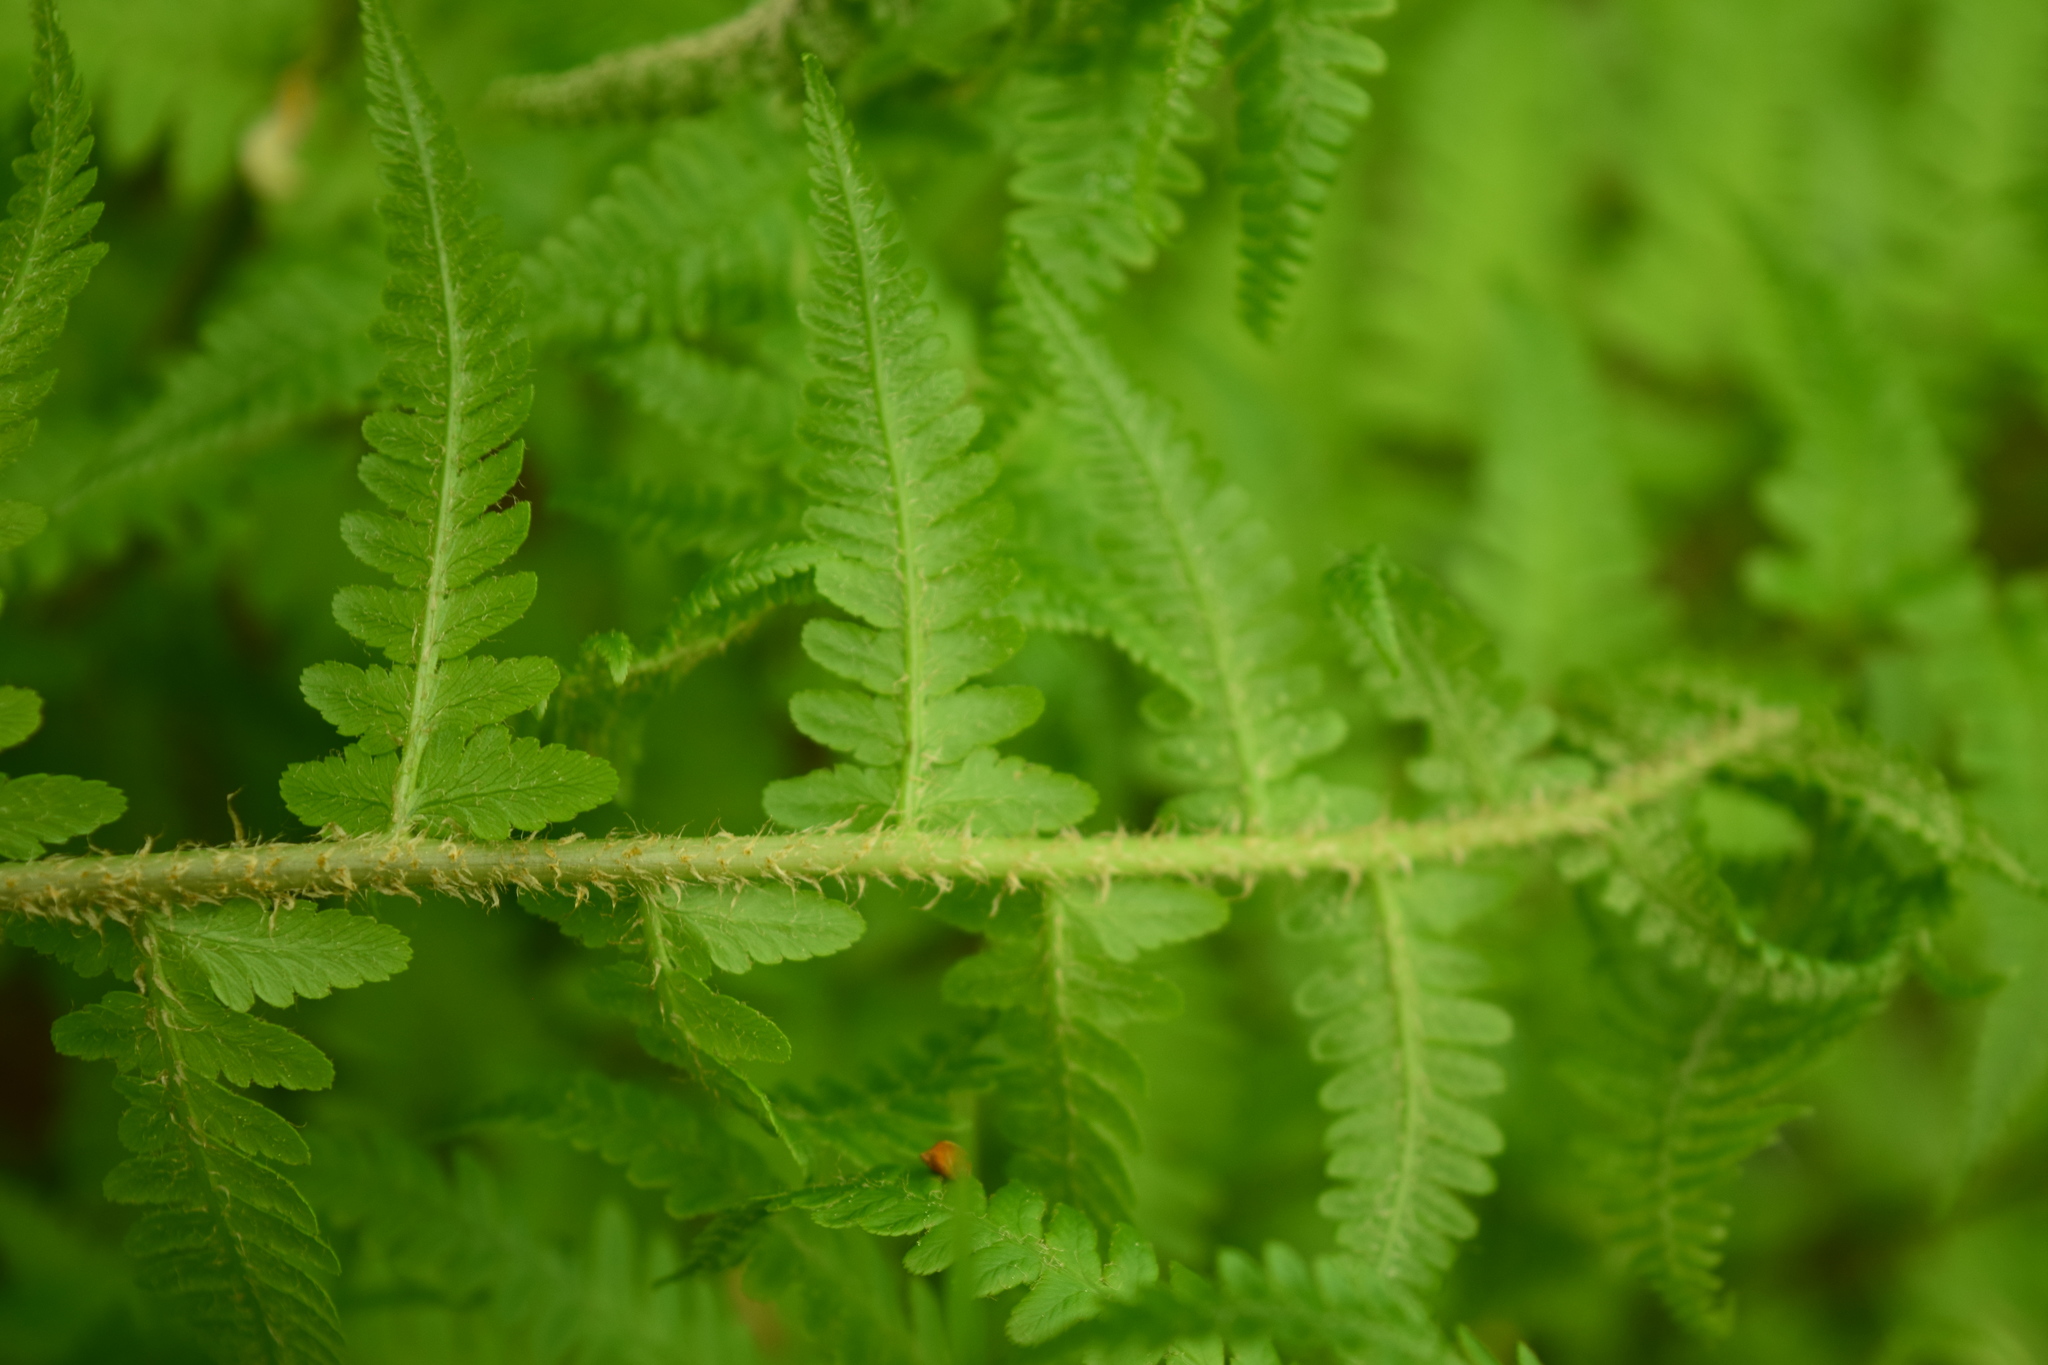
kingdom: Plantae
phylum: Tracheophyta
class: Polypodiopsida
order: Polypodiales
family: Dryopteridaceae
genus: Dryopteris
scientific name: Dryopteris filix-mas
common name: Male fern
